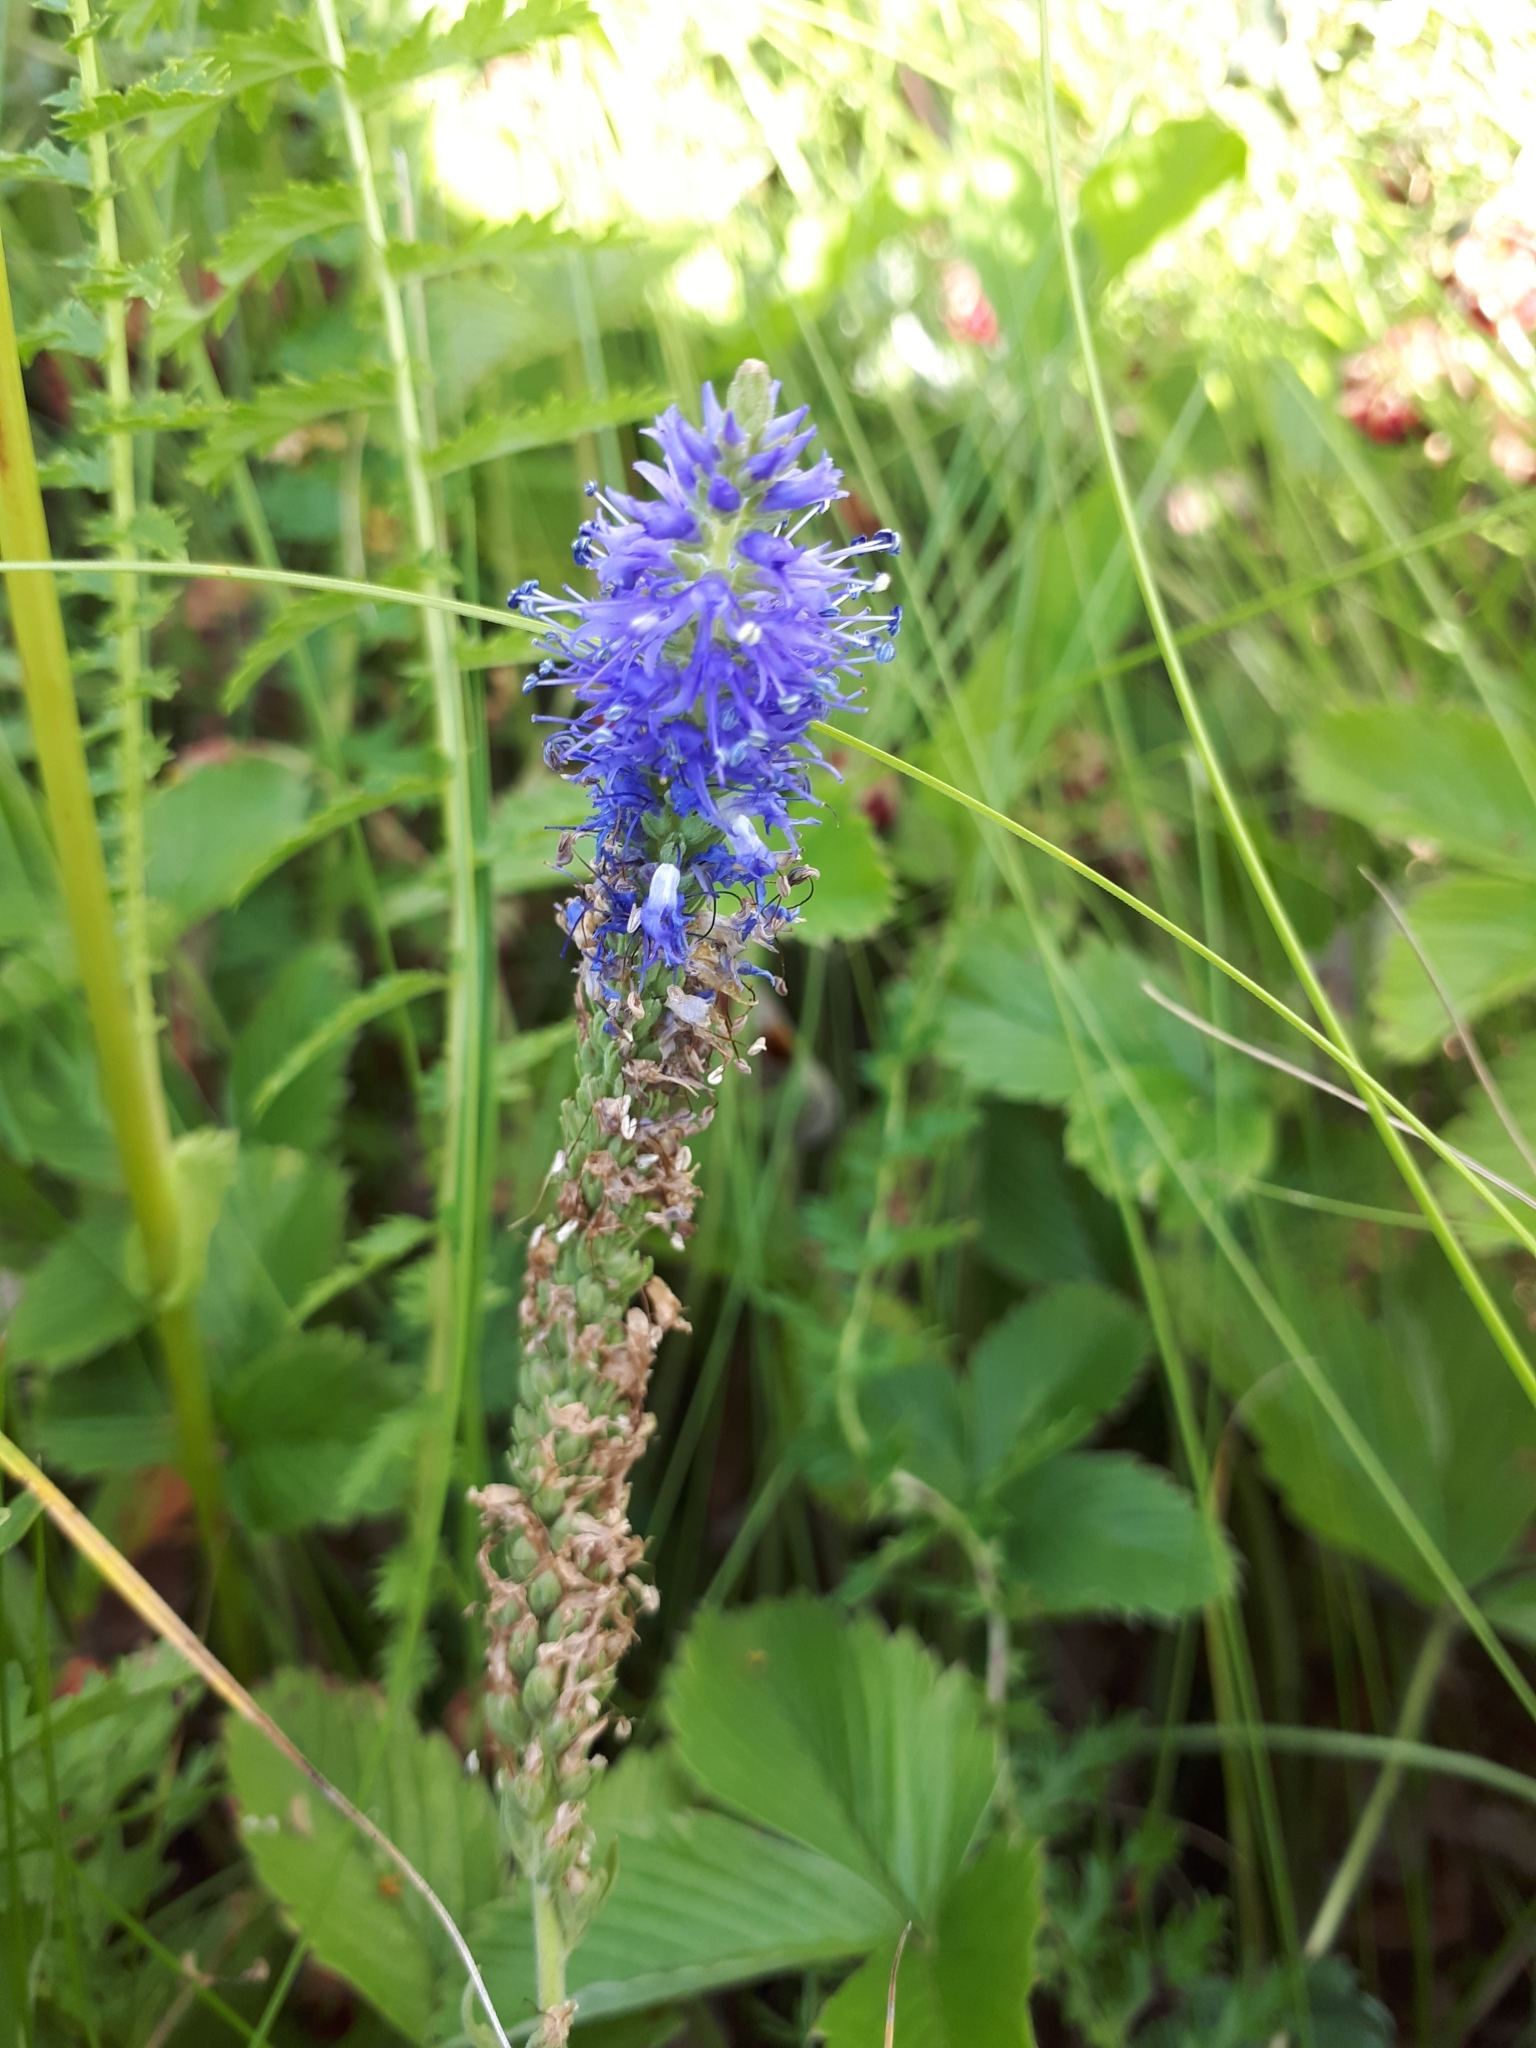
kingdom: Plantae
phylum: Tracheophyta
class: Magnoliopsida
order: Lamiales
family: Plantaginaceae
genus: Veronica
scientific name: Veronica spicata
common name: Spiked speedwell
